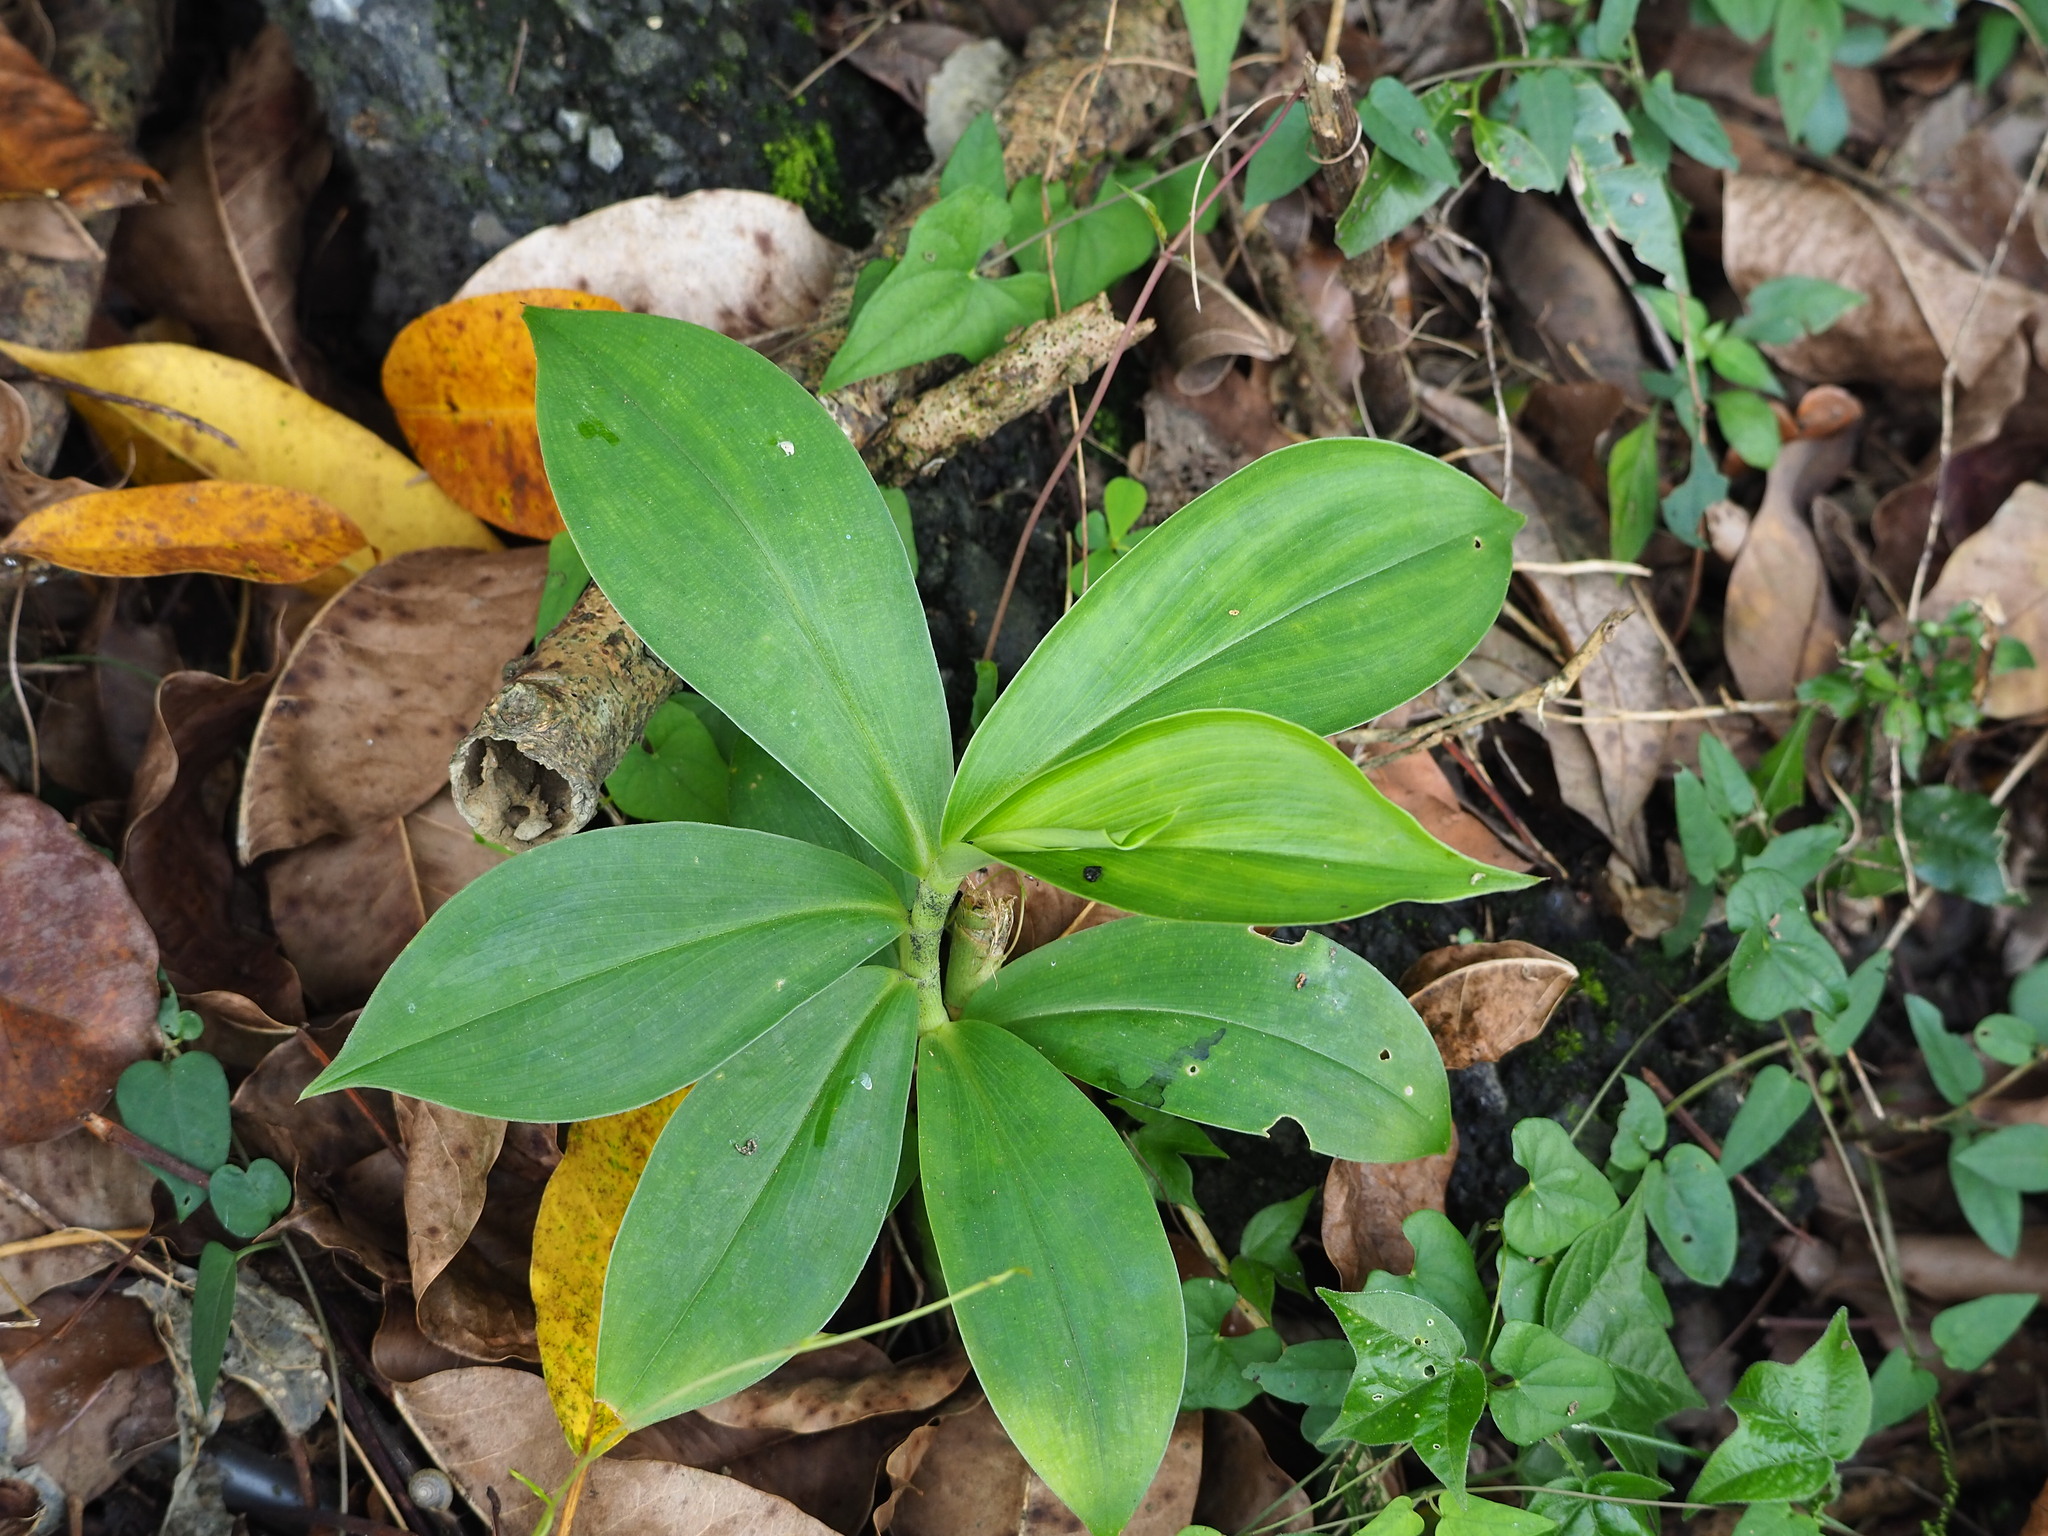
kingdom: Plantae
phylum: Tracheophyta
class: Liliopsida
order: Zingiberales
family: Costaceae
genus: Hellenia
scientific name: Hellenia speciosa
